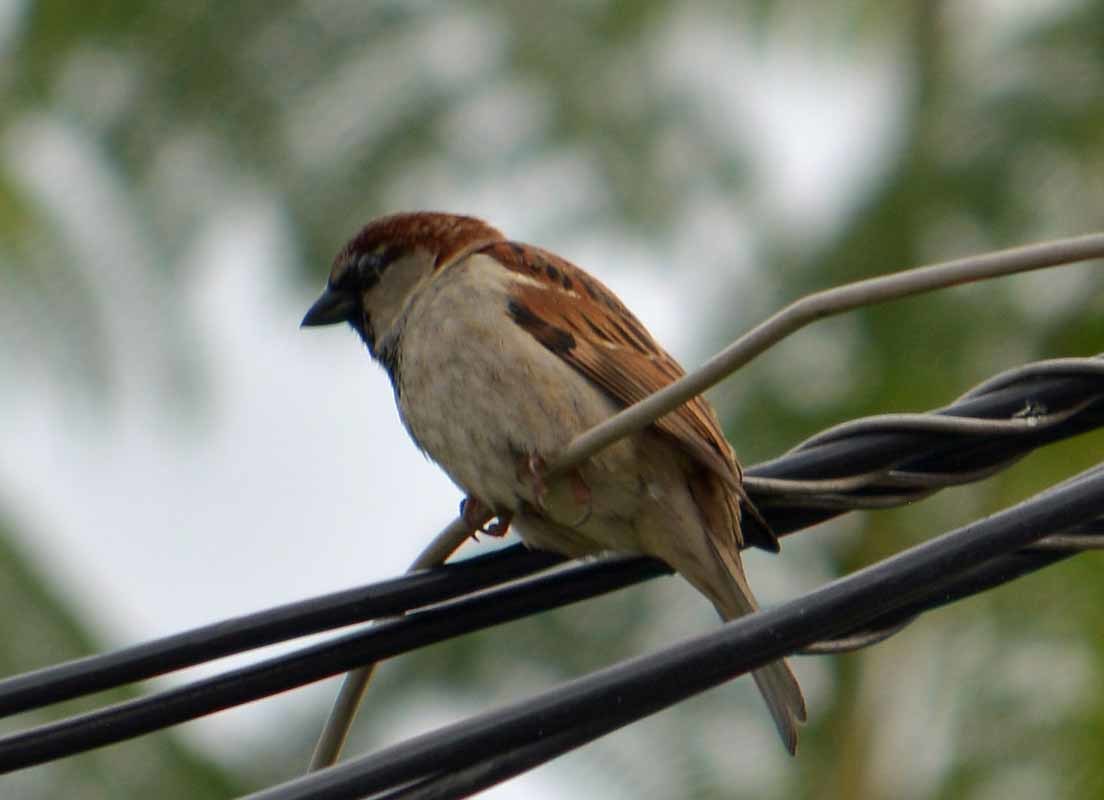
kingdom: Animalia
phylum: Chordata
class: Aves
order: Passeriformes
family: Passeridae
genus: Passer
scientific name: Passer domesticus
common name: House sparrow
